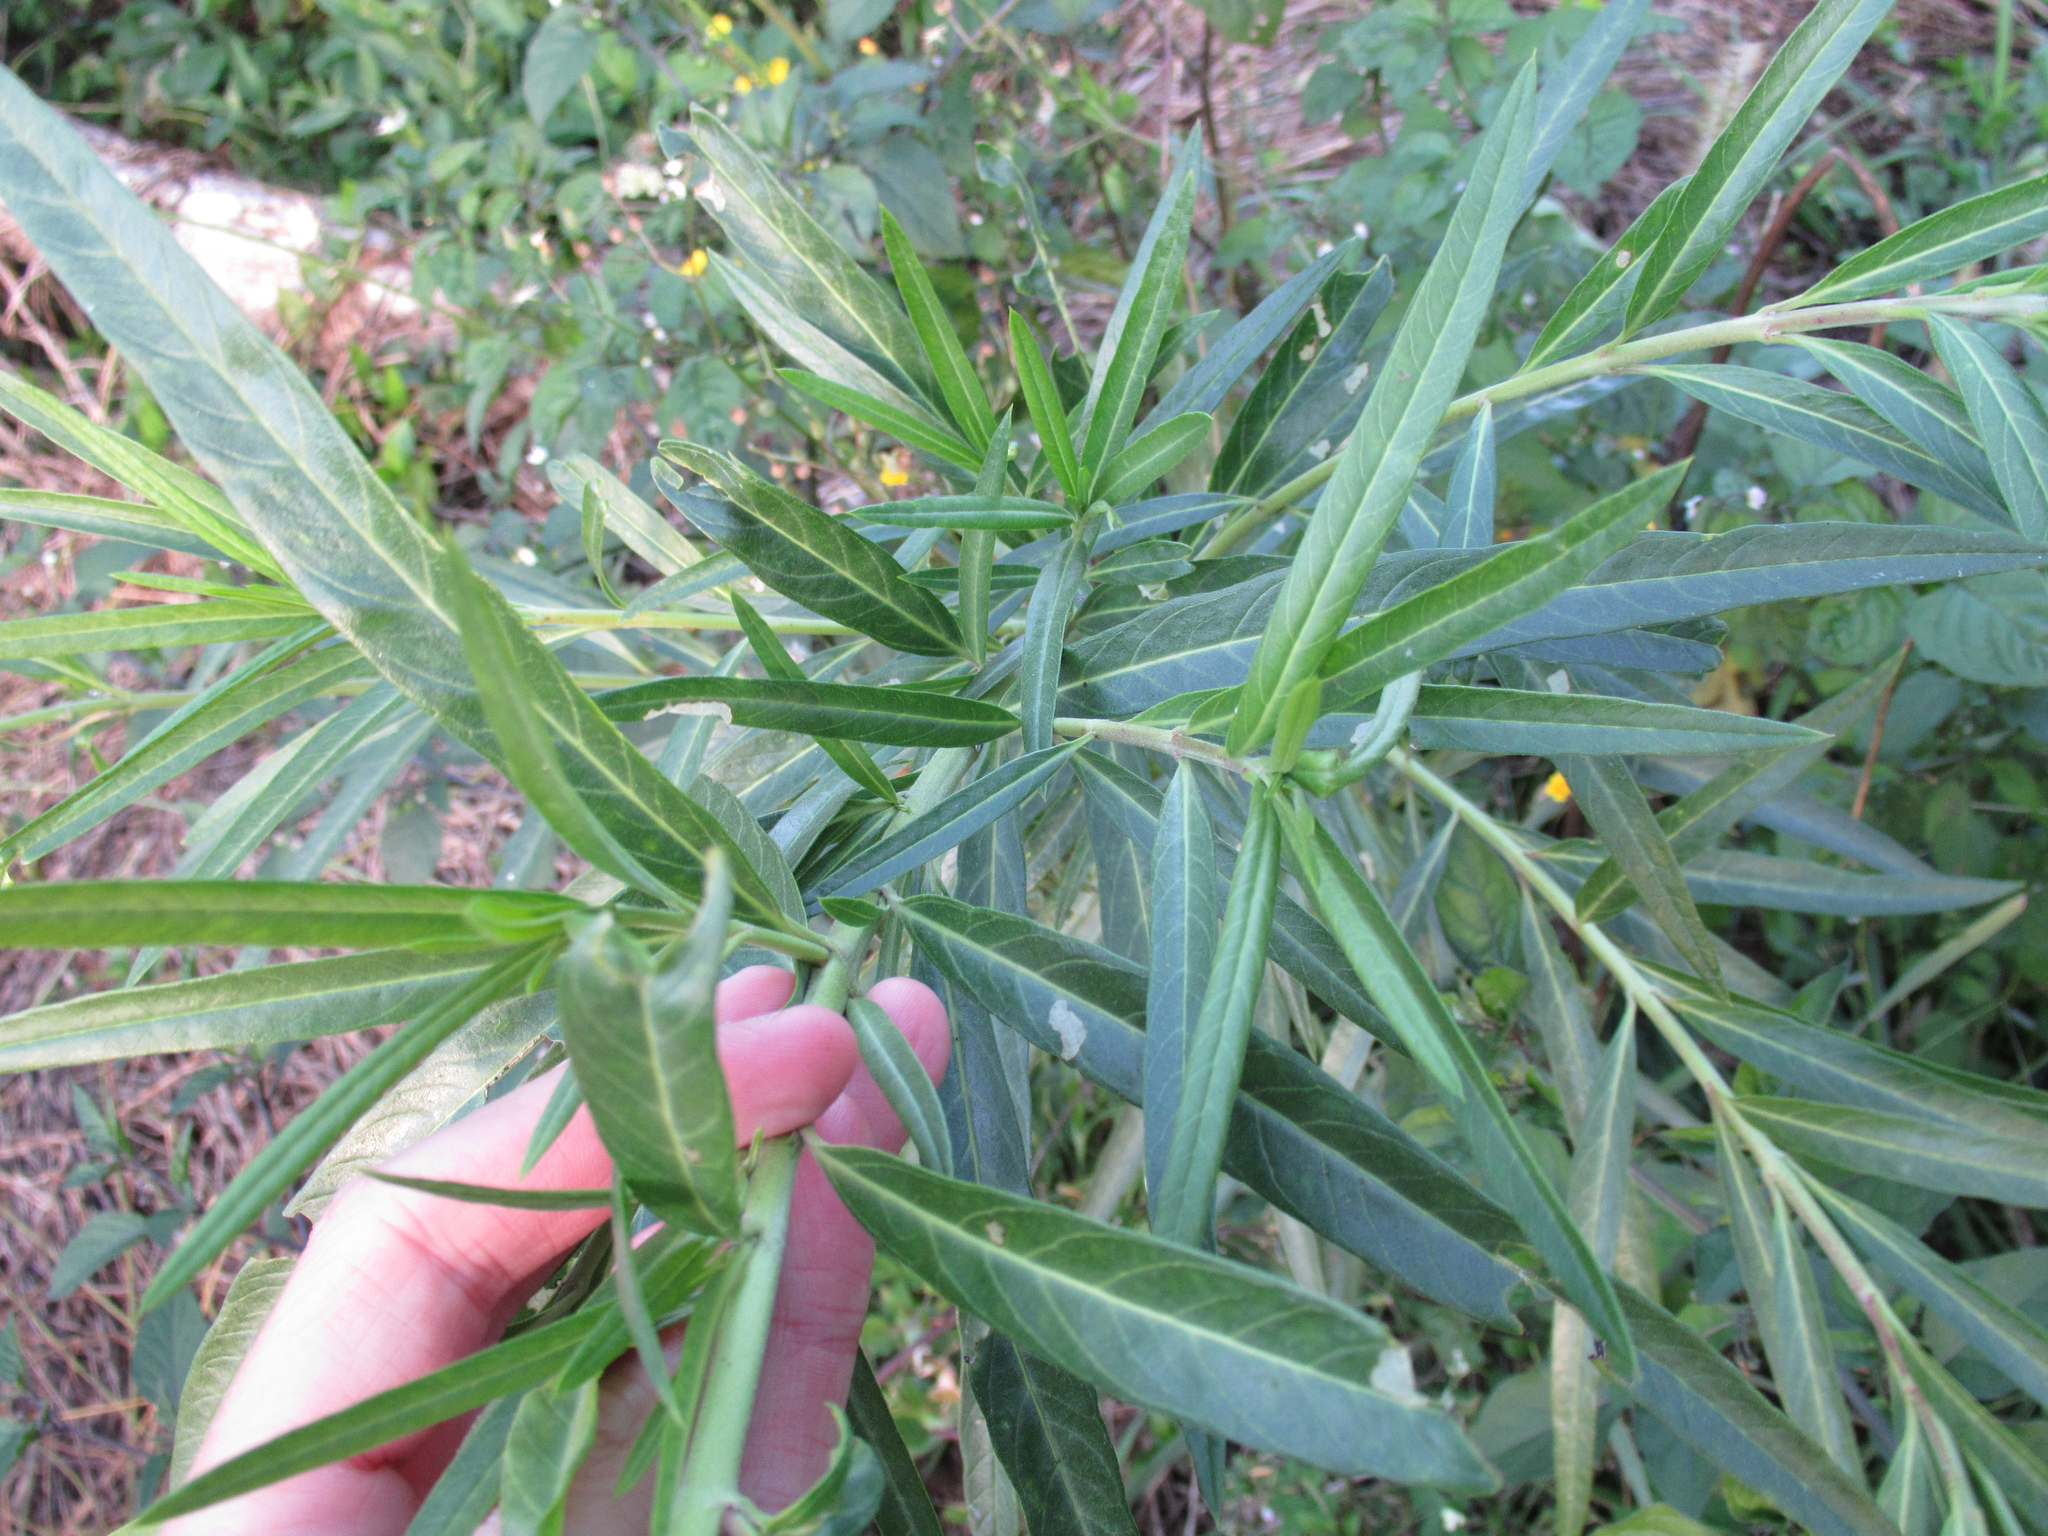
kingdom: Plantae
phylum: Tracheophyta
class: Magnoliopsida
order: Gentianales
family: Apocynaceae
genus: Gomphocarpus
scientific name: Gomphocarpus physocarpus
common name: Balloon cotton bush
